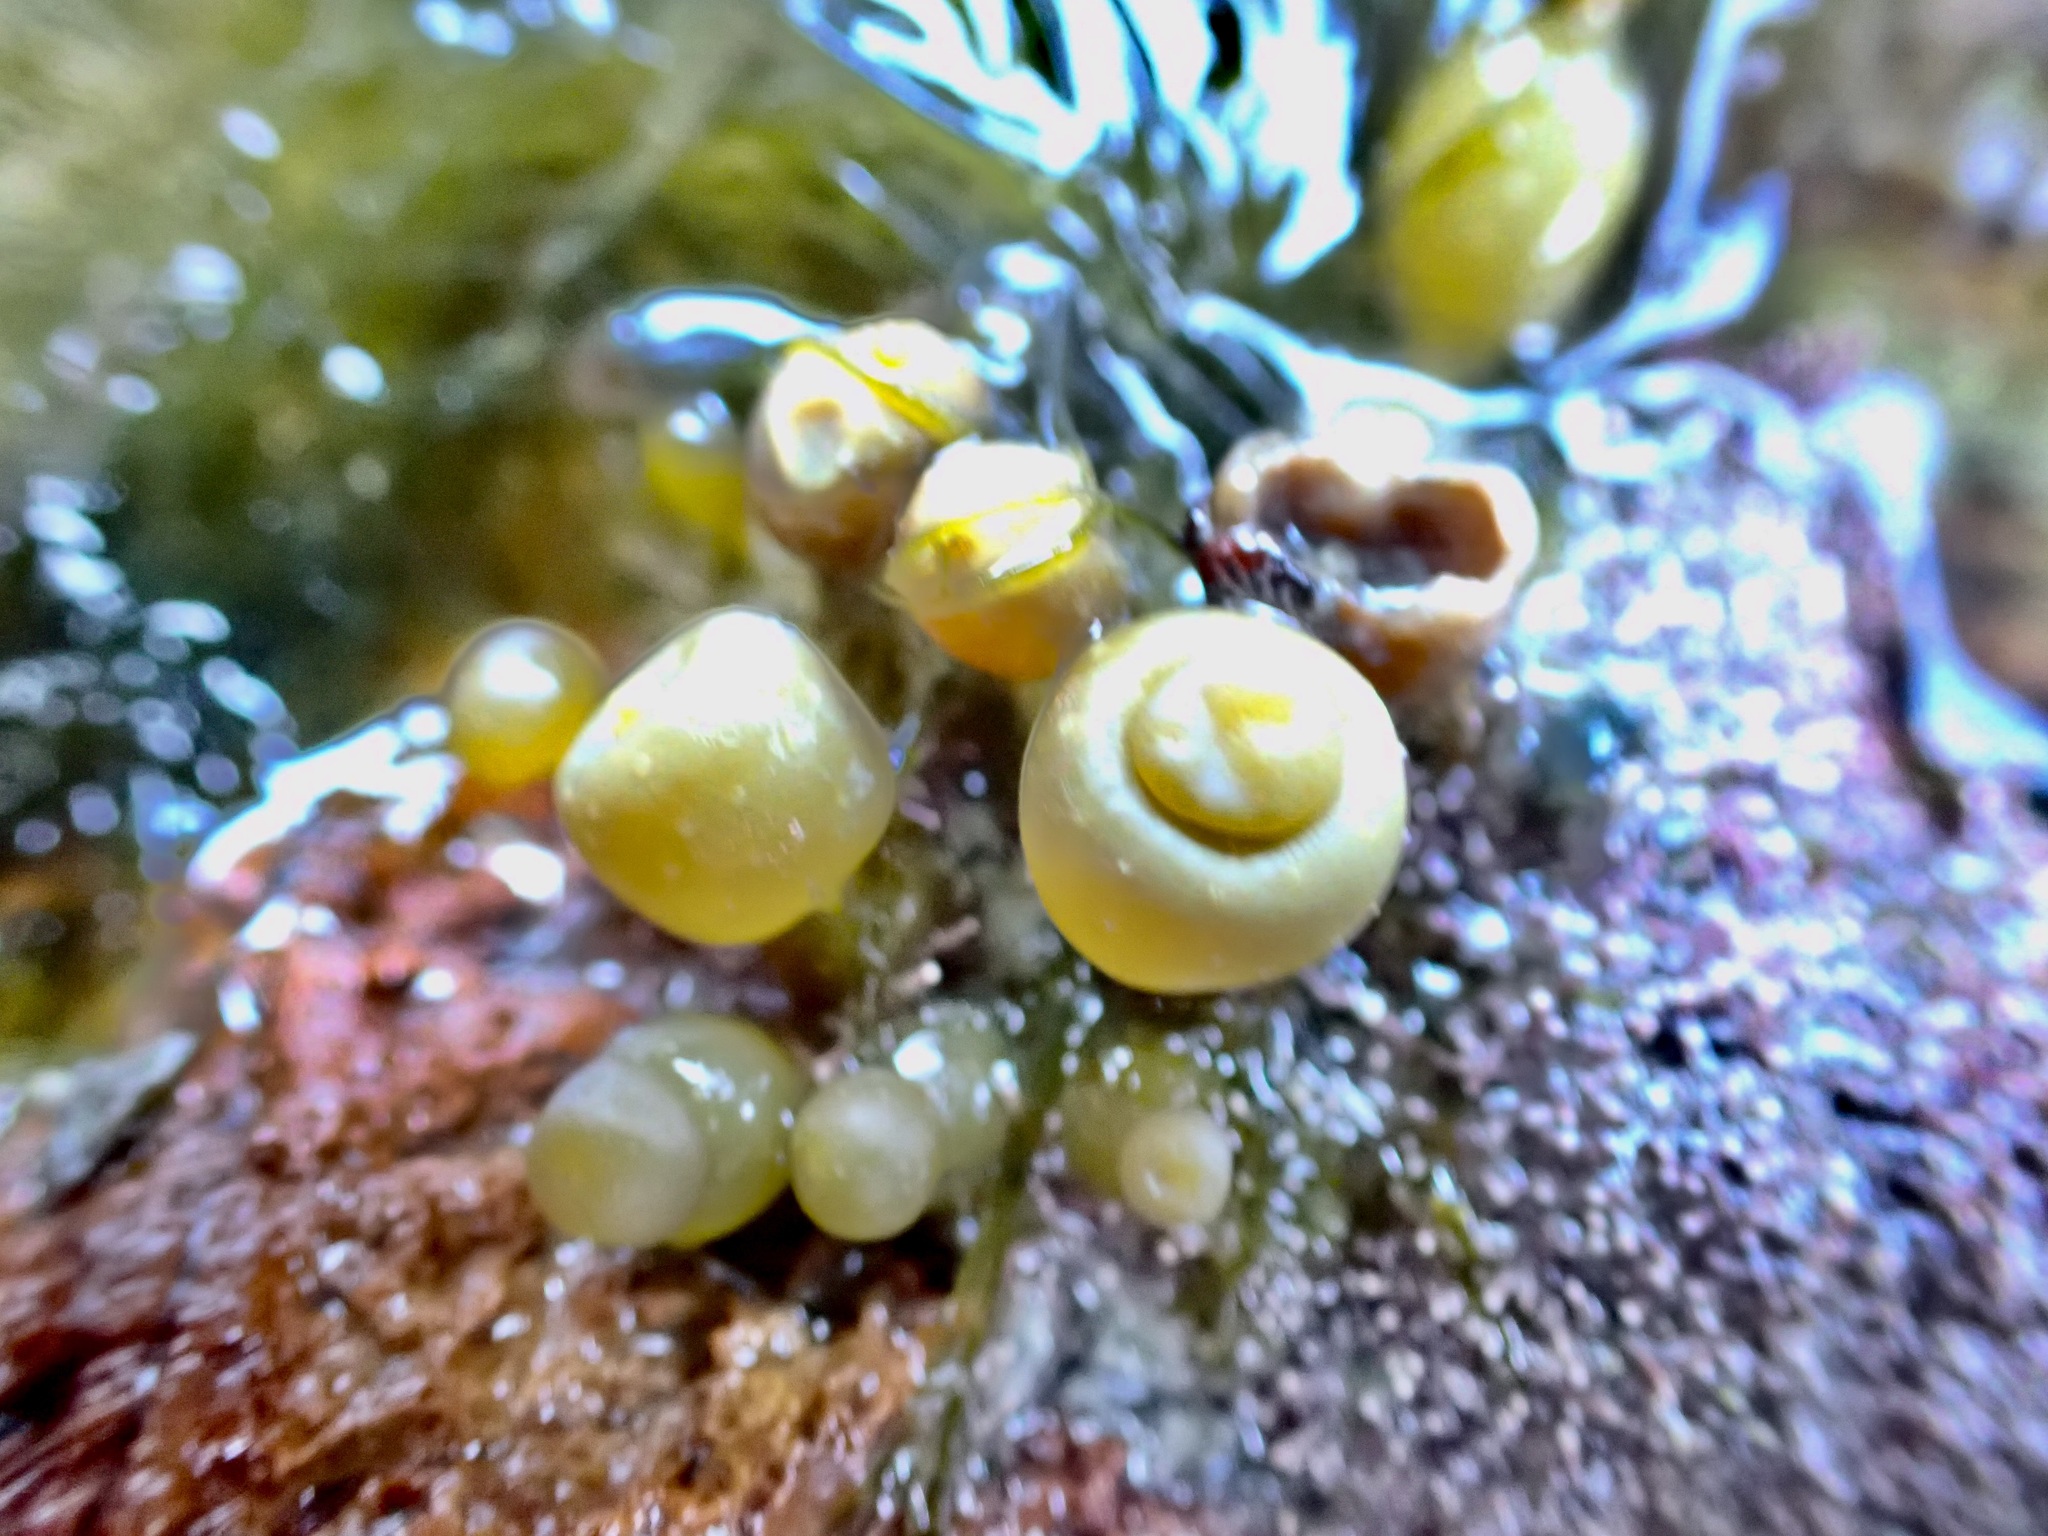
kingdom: Chromista
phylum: Ochrophyta
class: Phaeophyceae
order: Fucales
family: Hormosiraceae
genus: Hormosira
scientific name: Hormosira banksii
